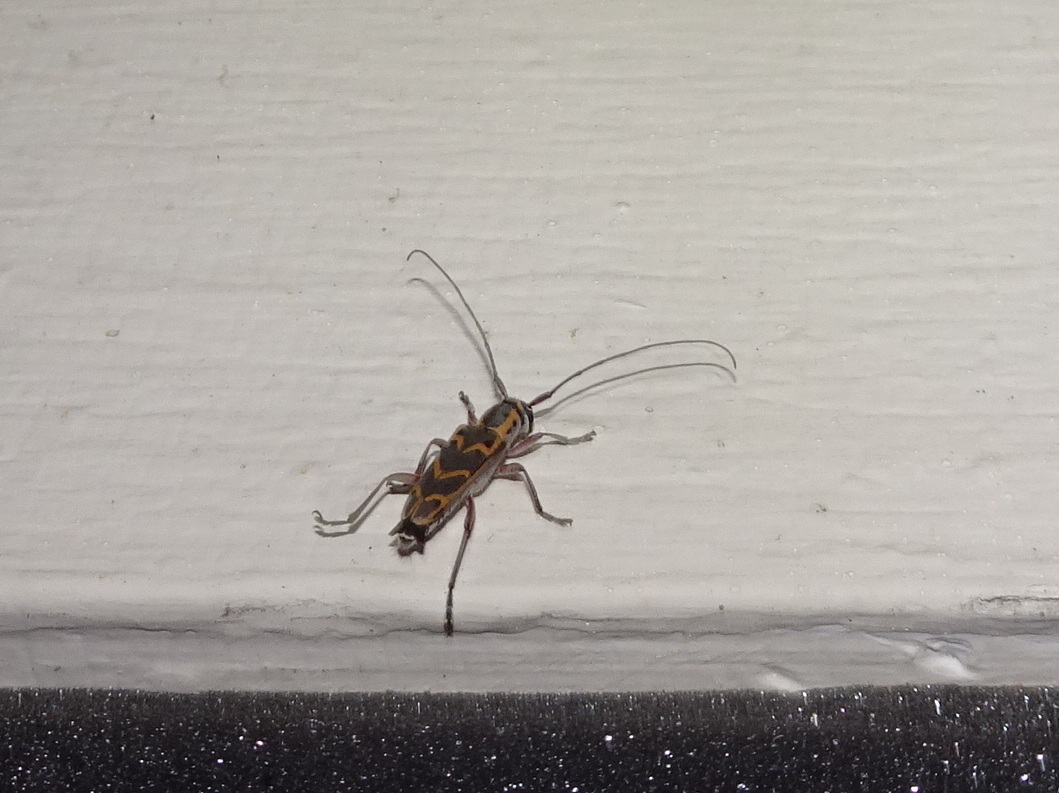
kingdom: Animalia
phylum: Arthropoda
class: Insecta
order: Coleoptera
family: Cerambycidae
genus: Saperda
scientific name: Saperda tridentata
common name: Elm borer
